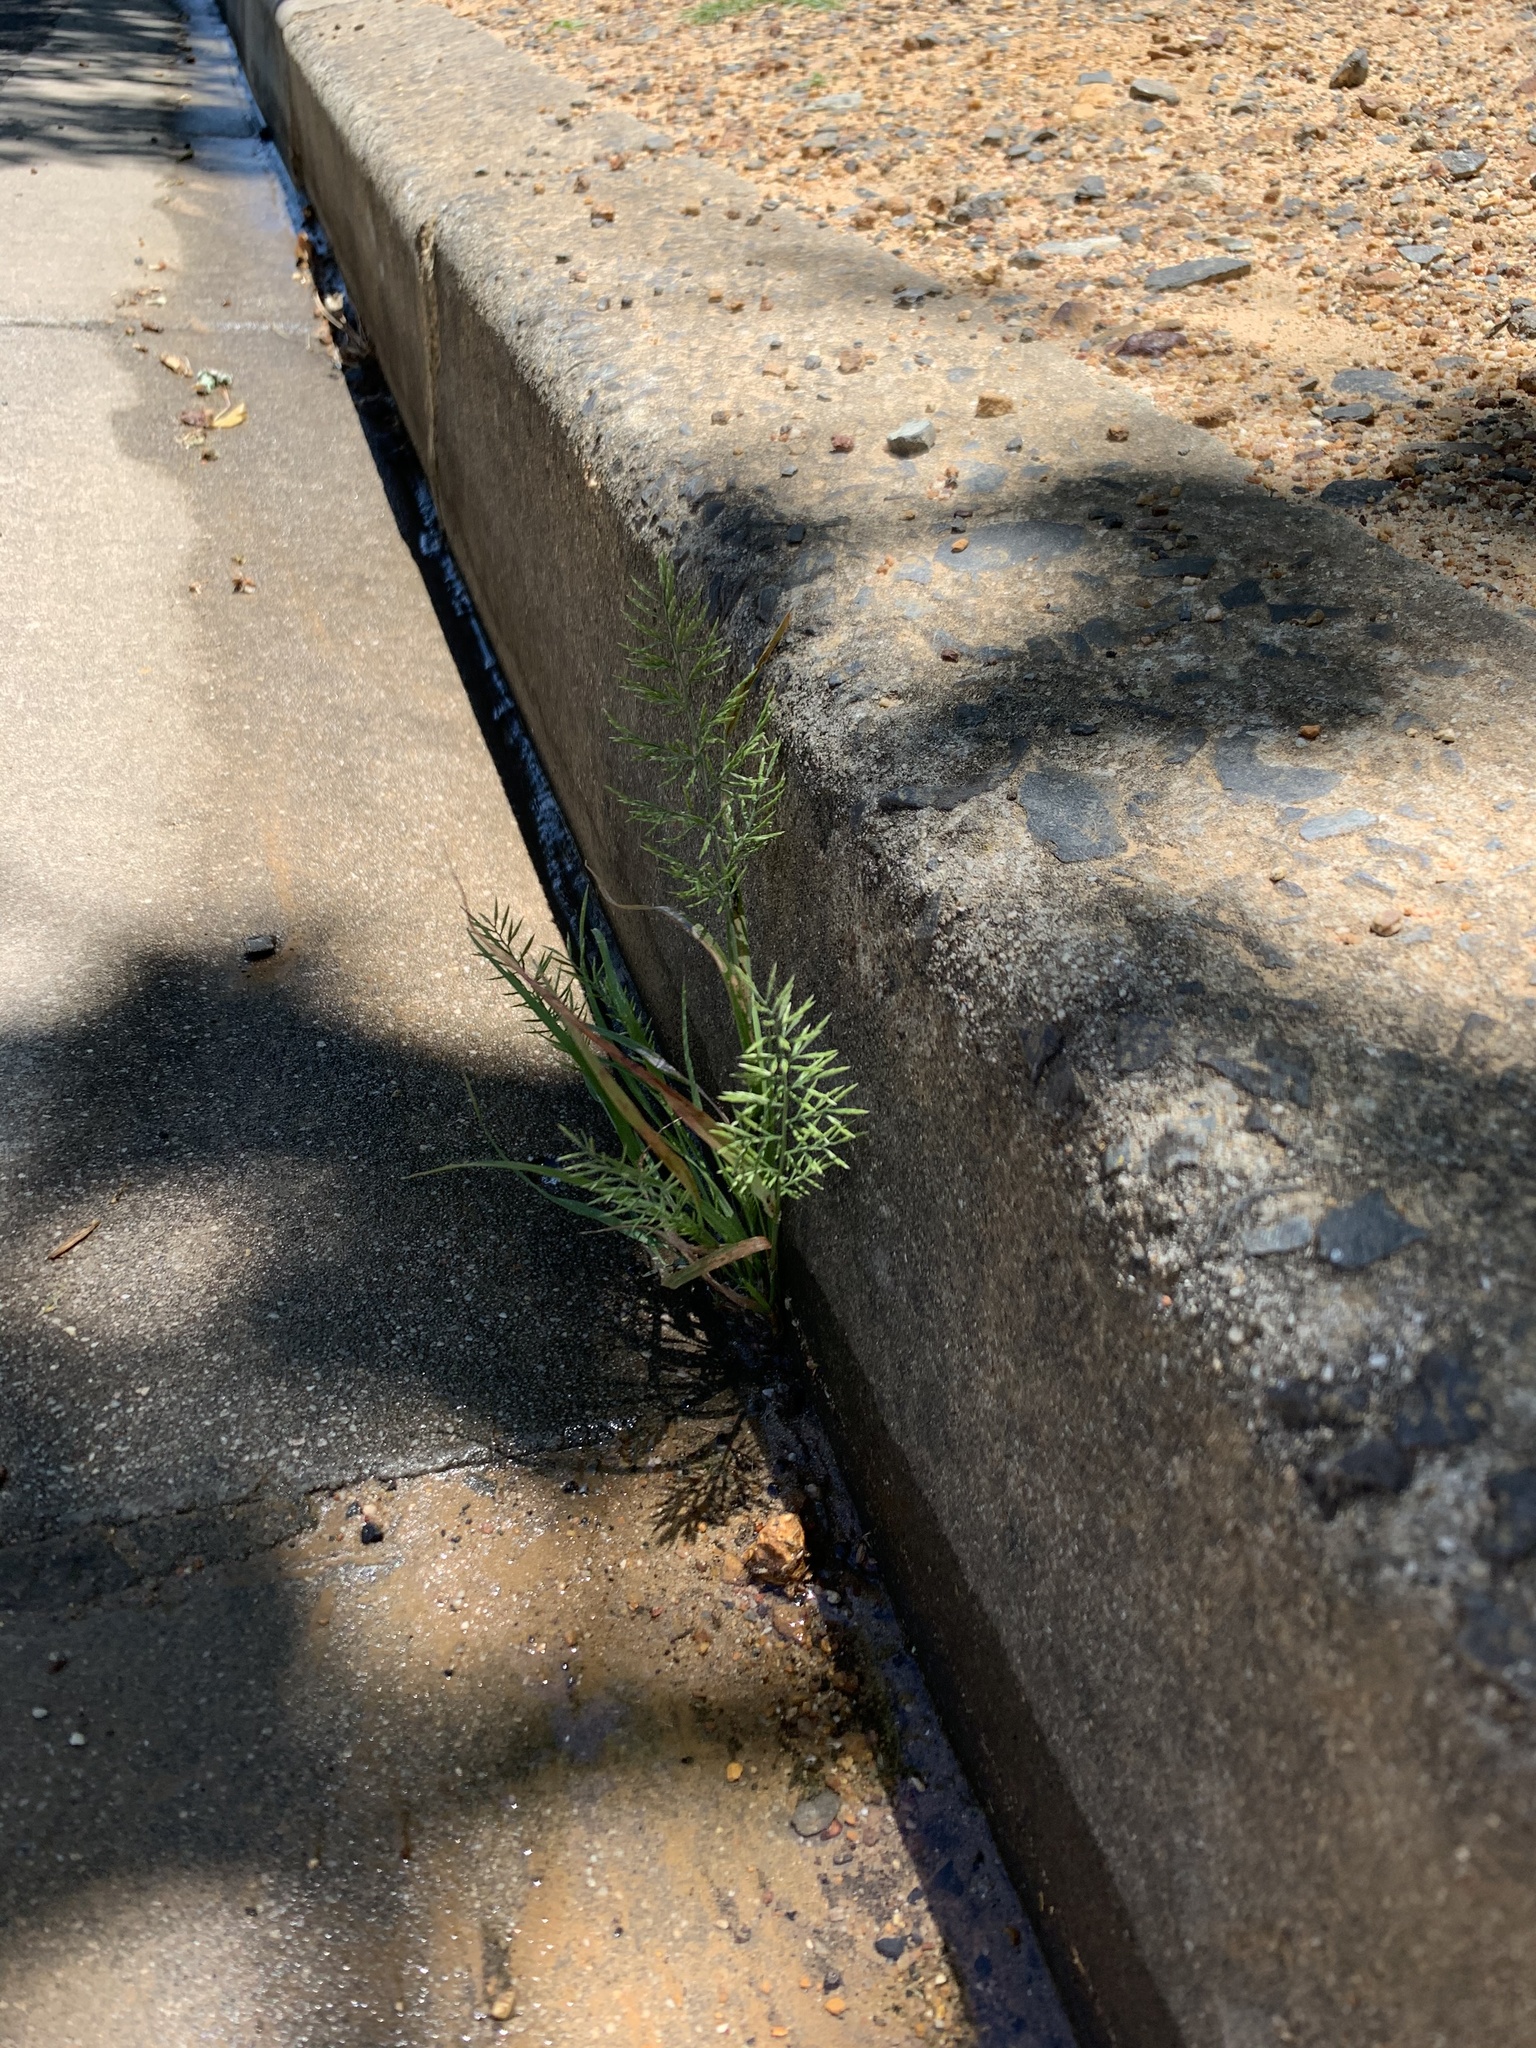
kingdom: Plantae
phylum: Tracheophyta
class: Liliopsida
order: Poales
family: Poaceae
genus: Catapodium
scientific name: Catapodium rigidum
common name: Fern-grass
